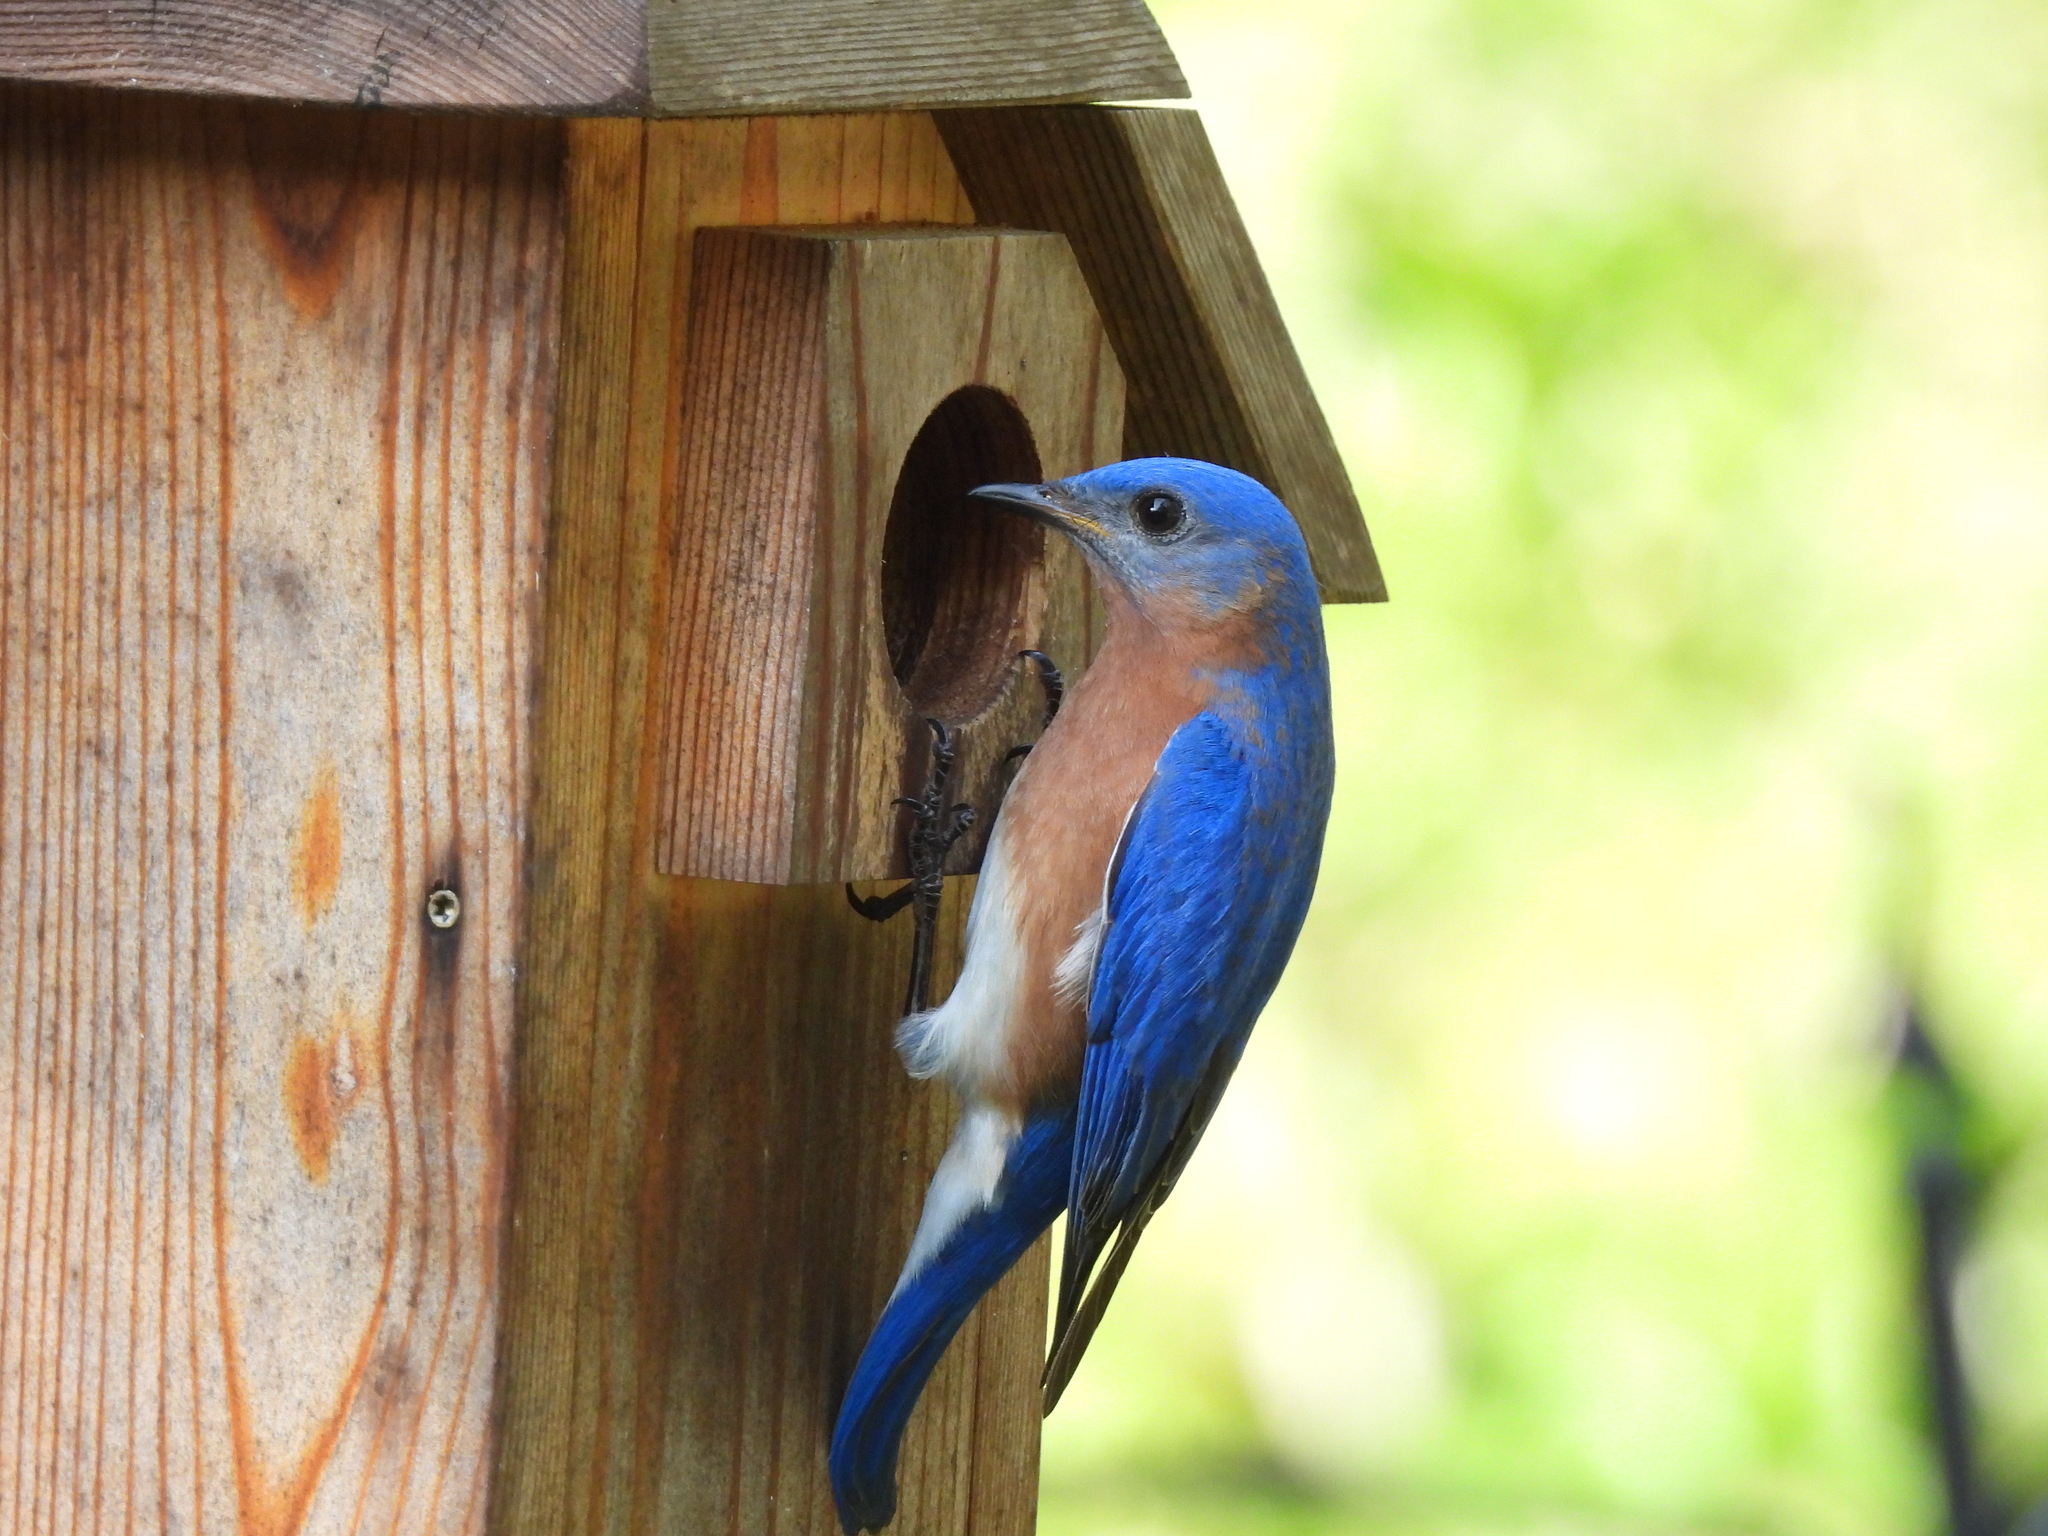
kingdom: Animalia
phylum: Chordata
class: Aves
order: Passeriformes
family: Turdidae
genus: Sialia
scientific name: Sialia sialis
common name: Eastern bluebird
